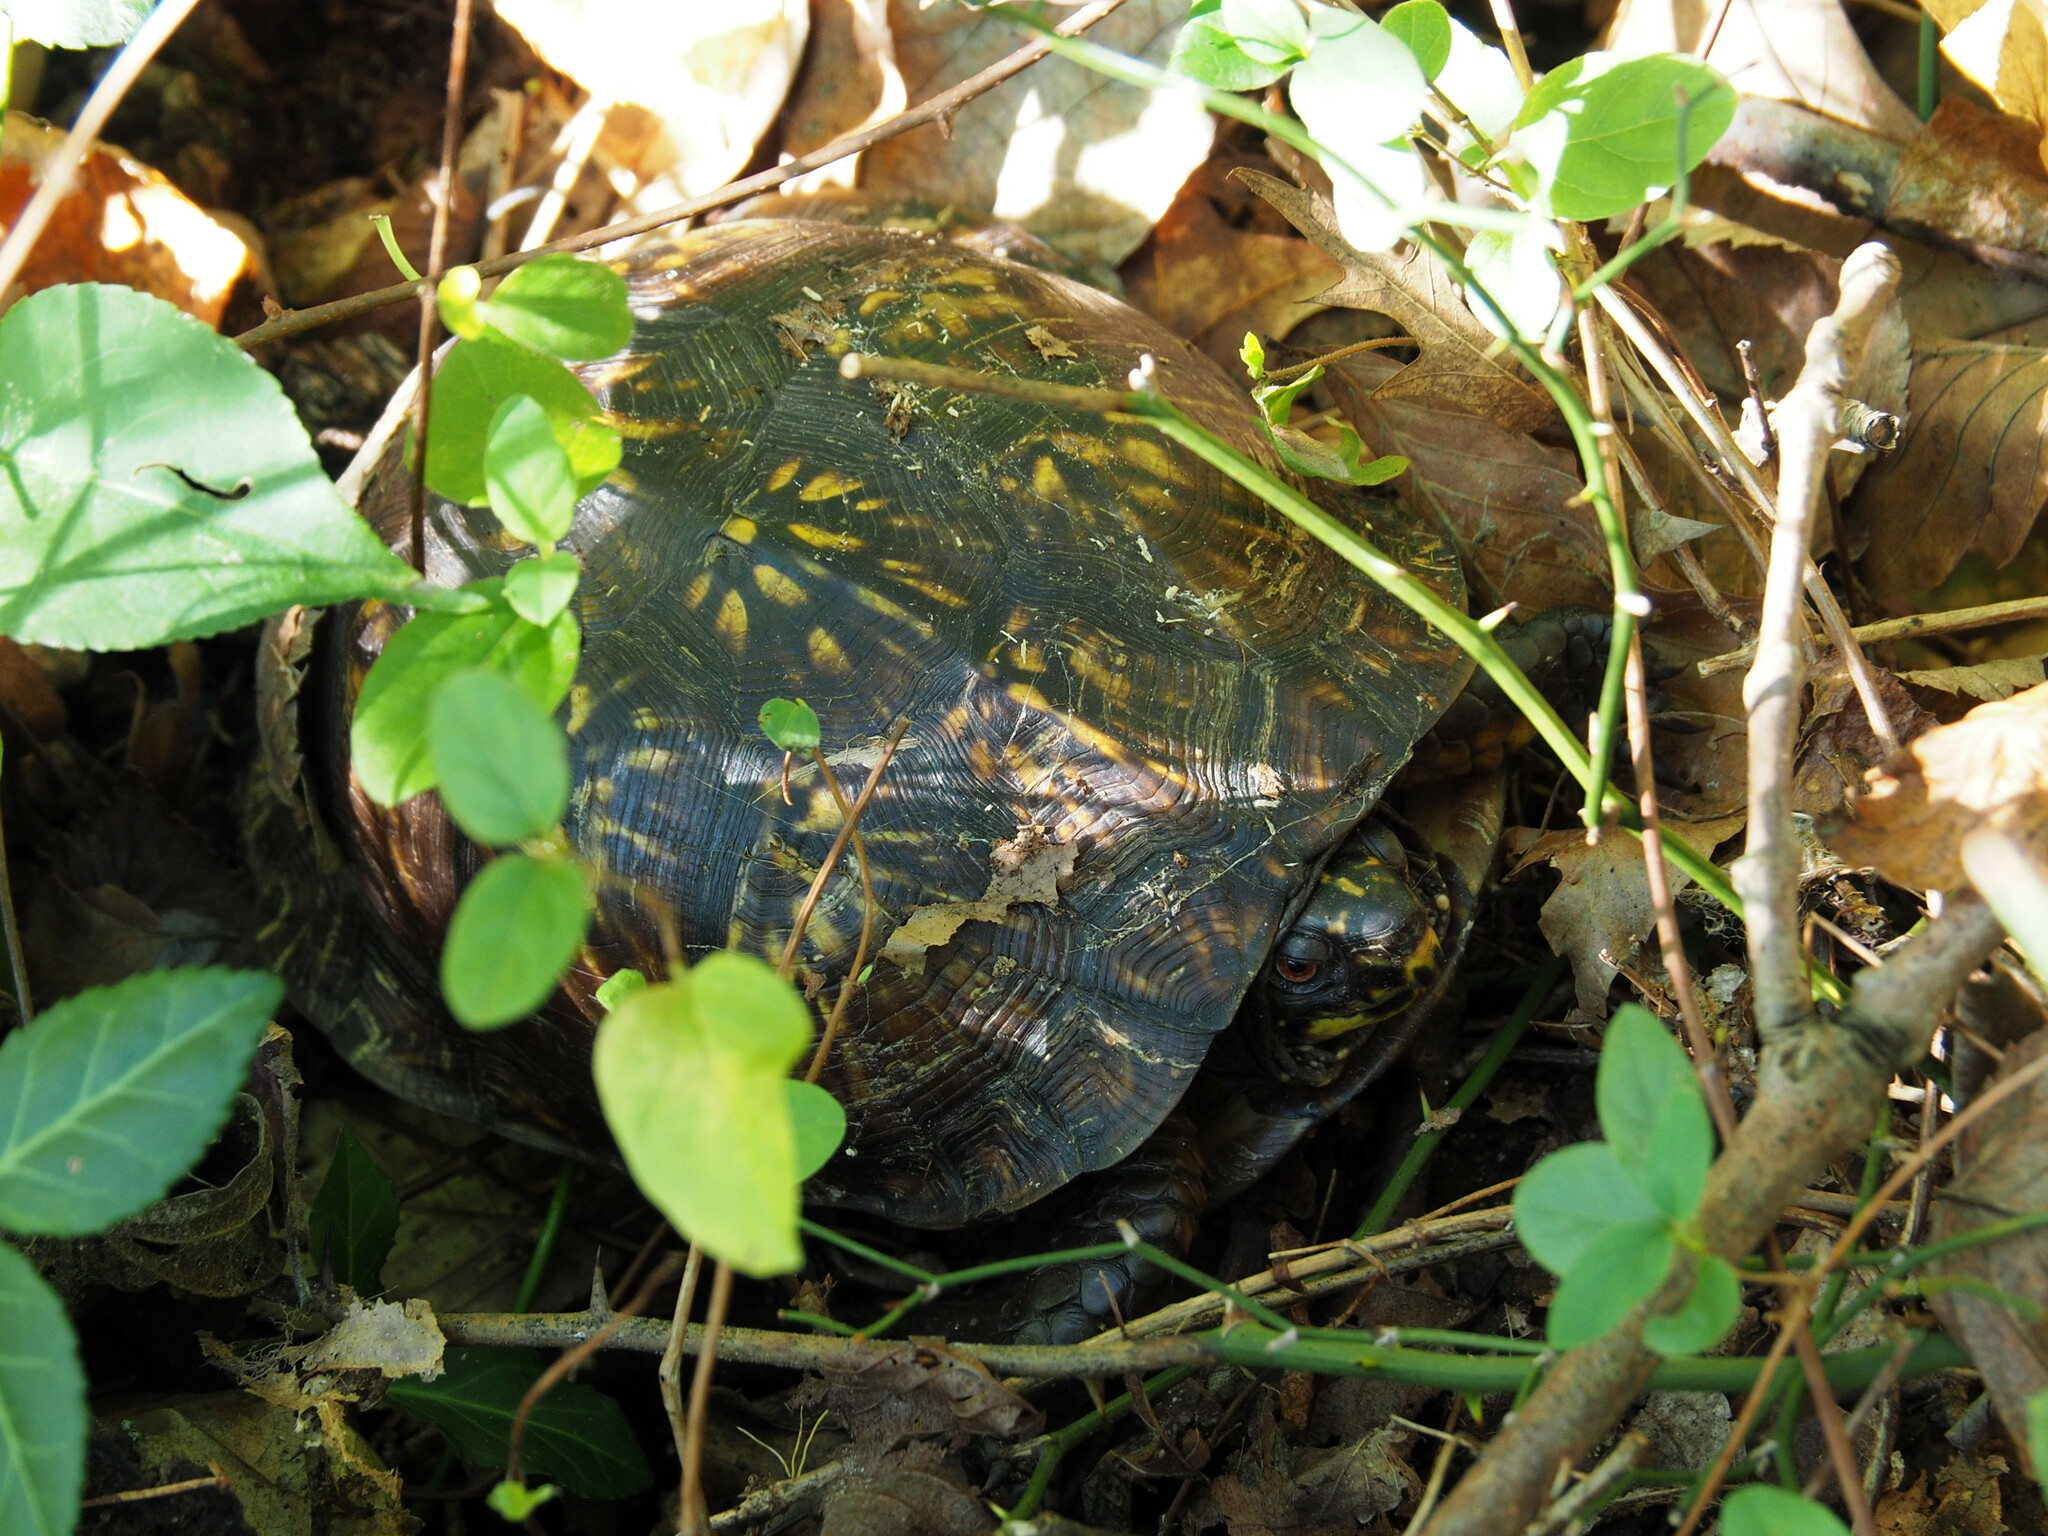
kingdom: Animalia
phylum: Chordata
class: Testudines
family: Emydidae
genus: Terrapene
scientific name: Terrapene carolina
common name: Common box turtle
